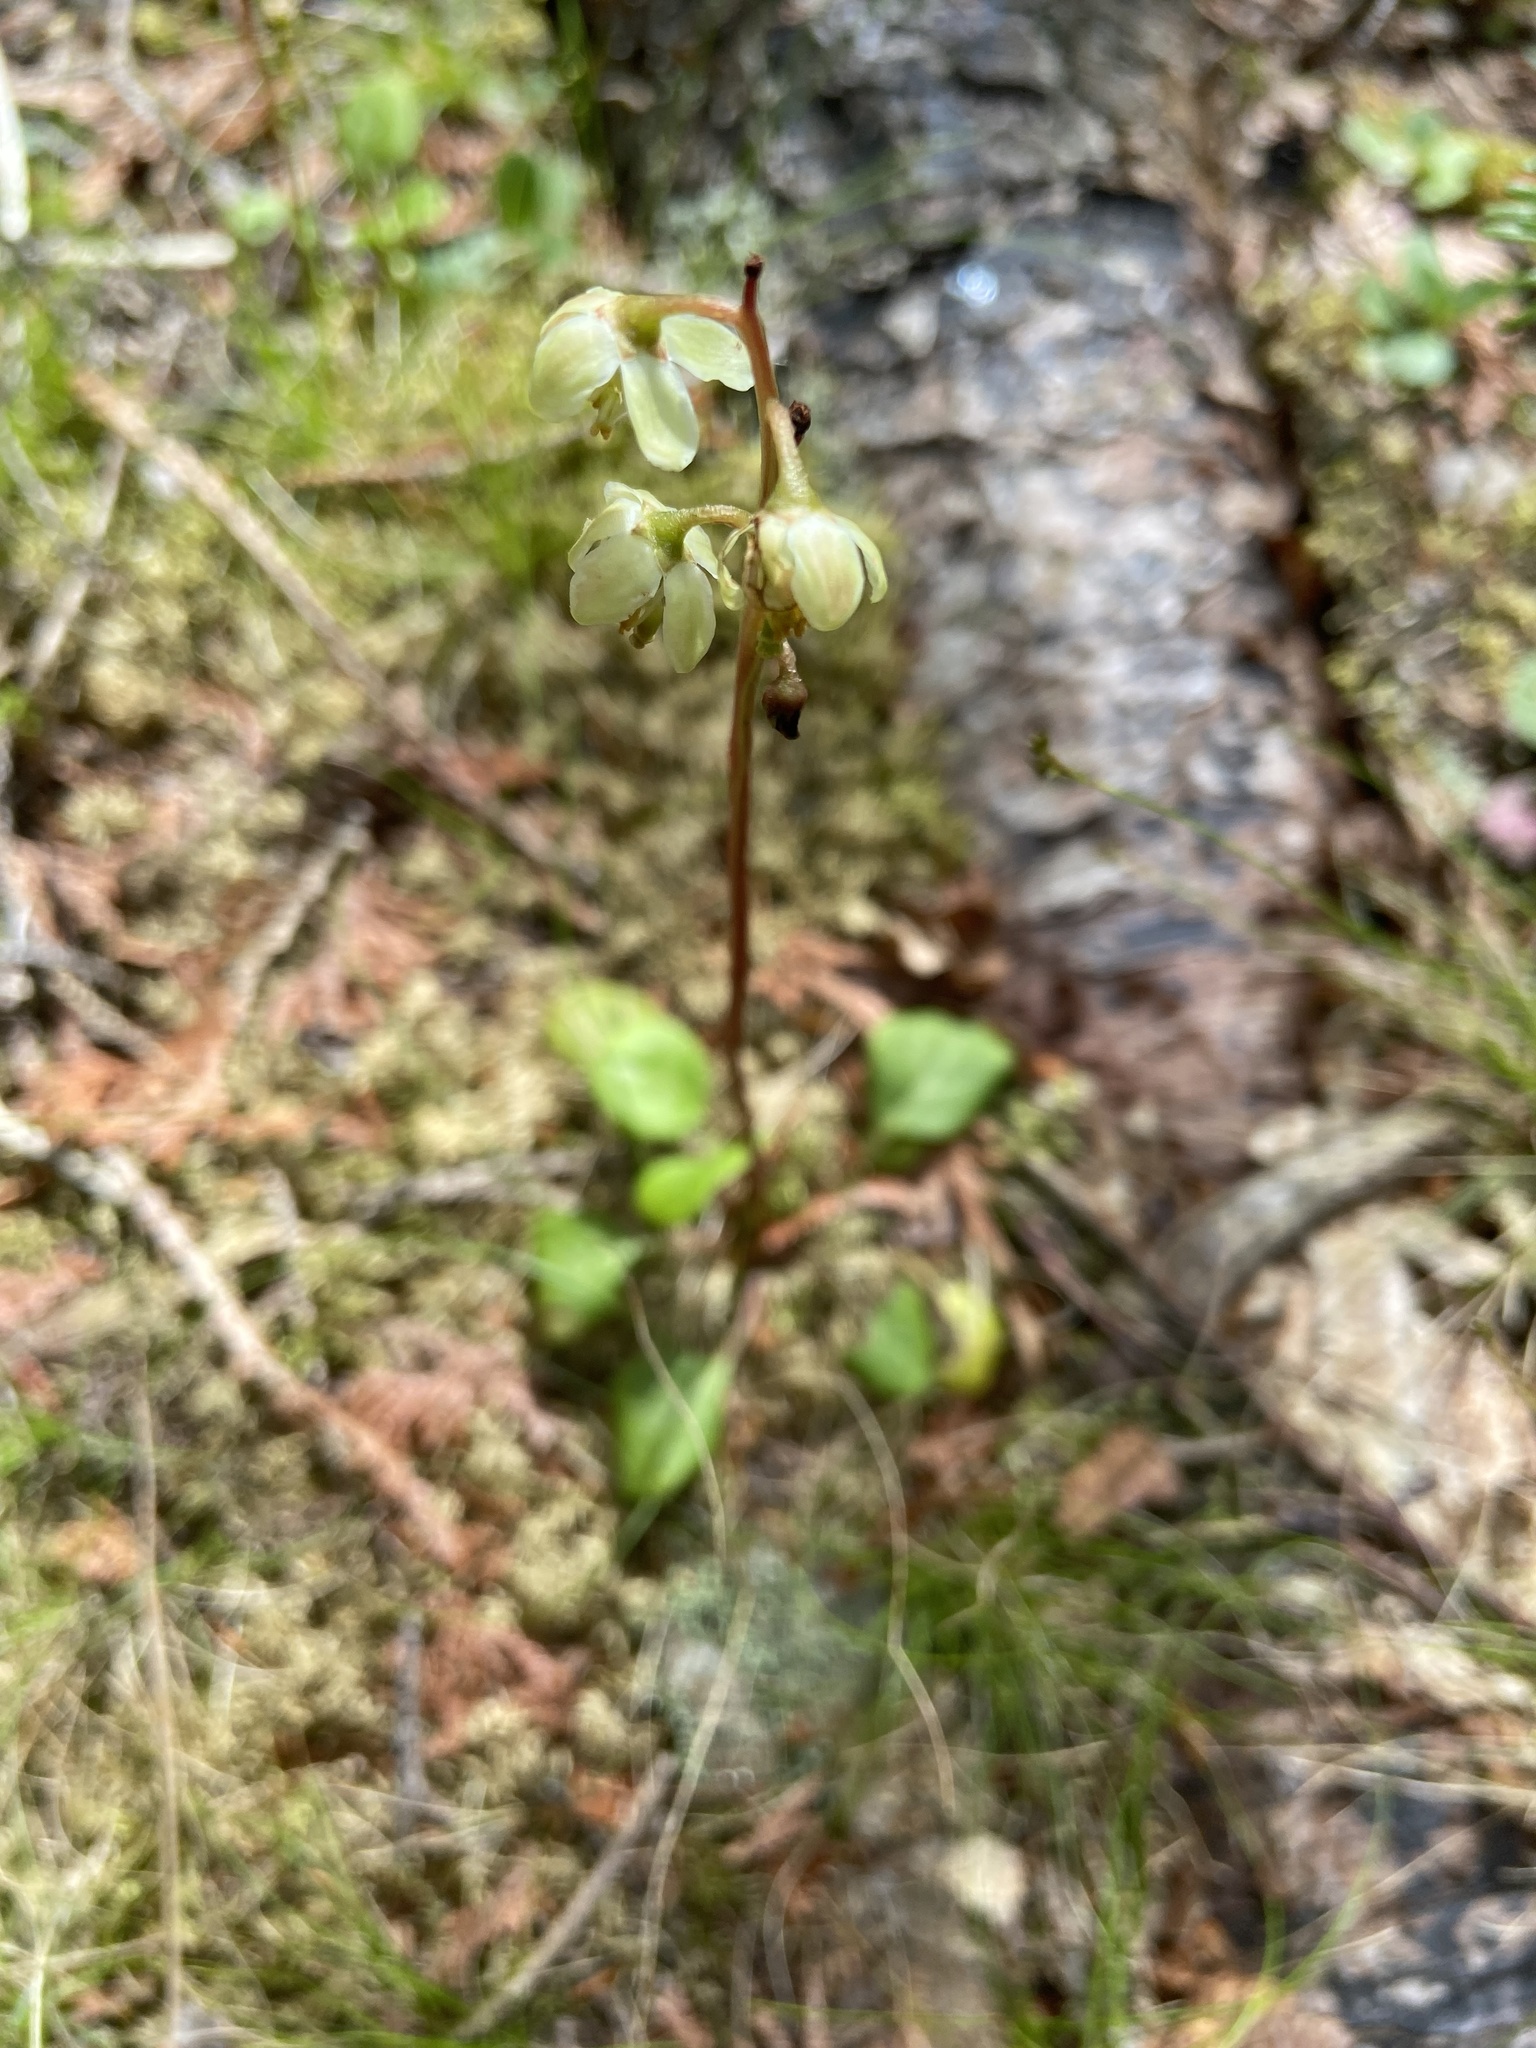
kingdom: Plantae
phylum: Tracheophyta
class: Magnoliopsida
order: Ericales
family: Ericaceae
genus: Pyrola
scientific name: Pyrola chlorantha
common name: Green wintergreen
